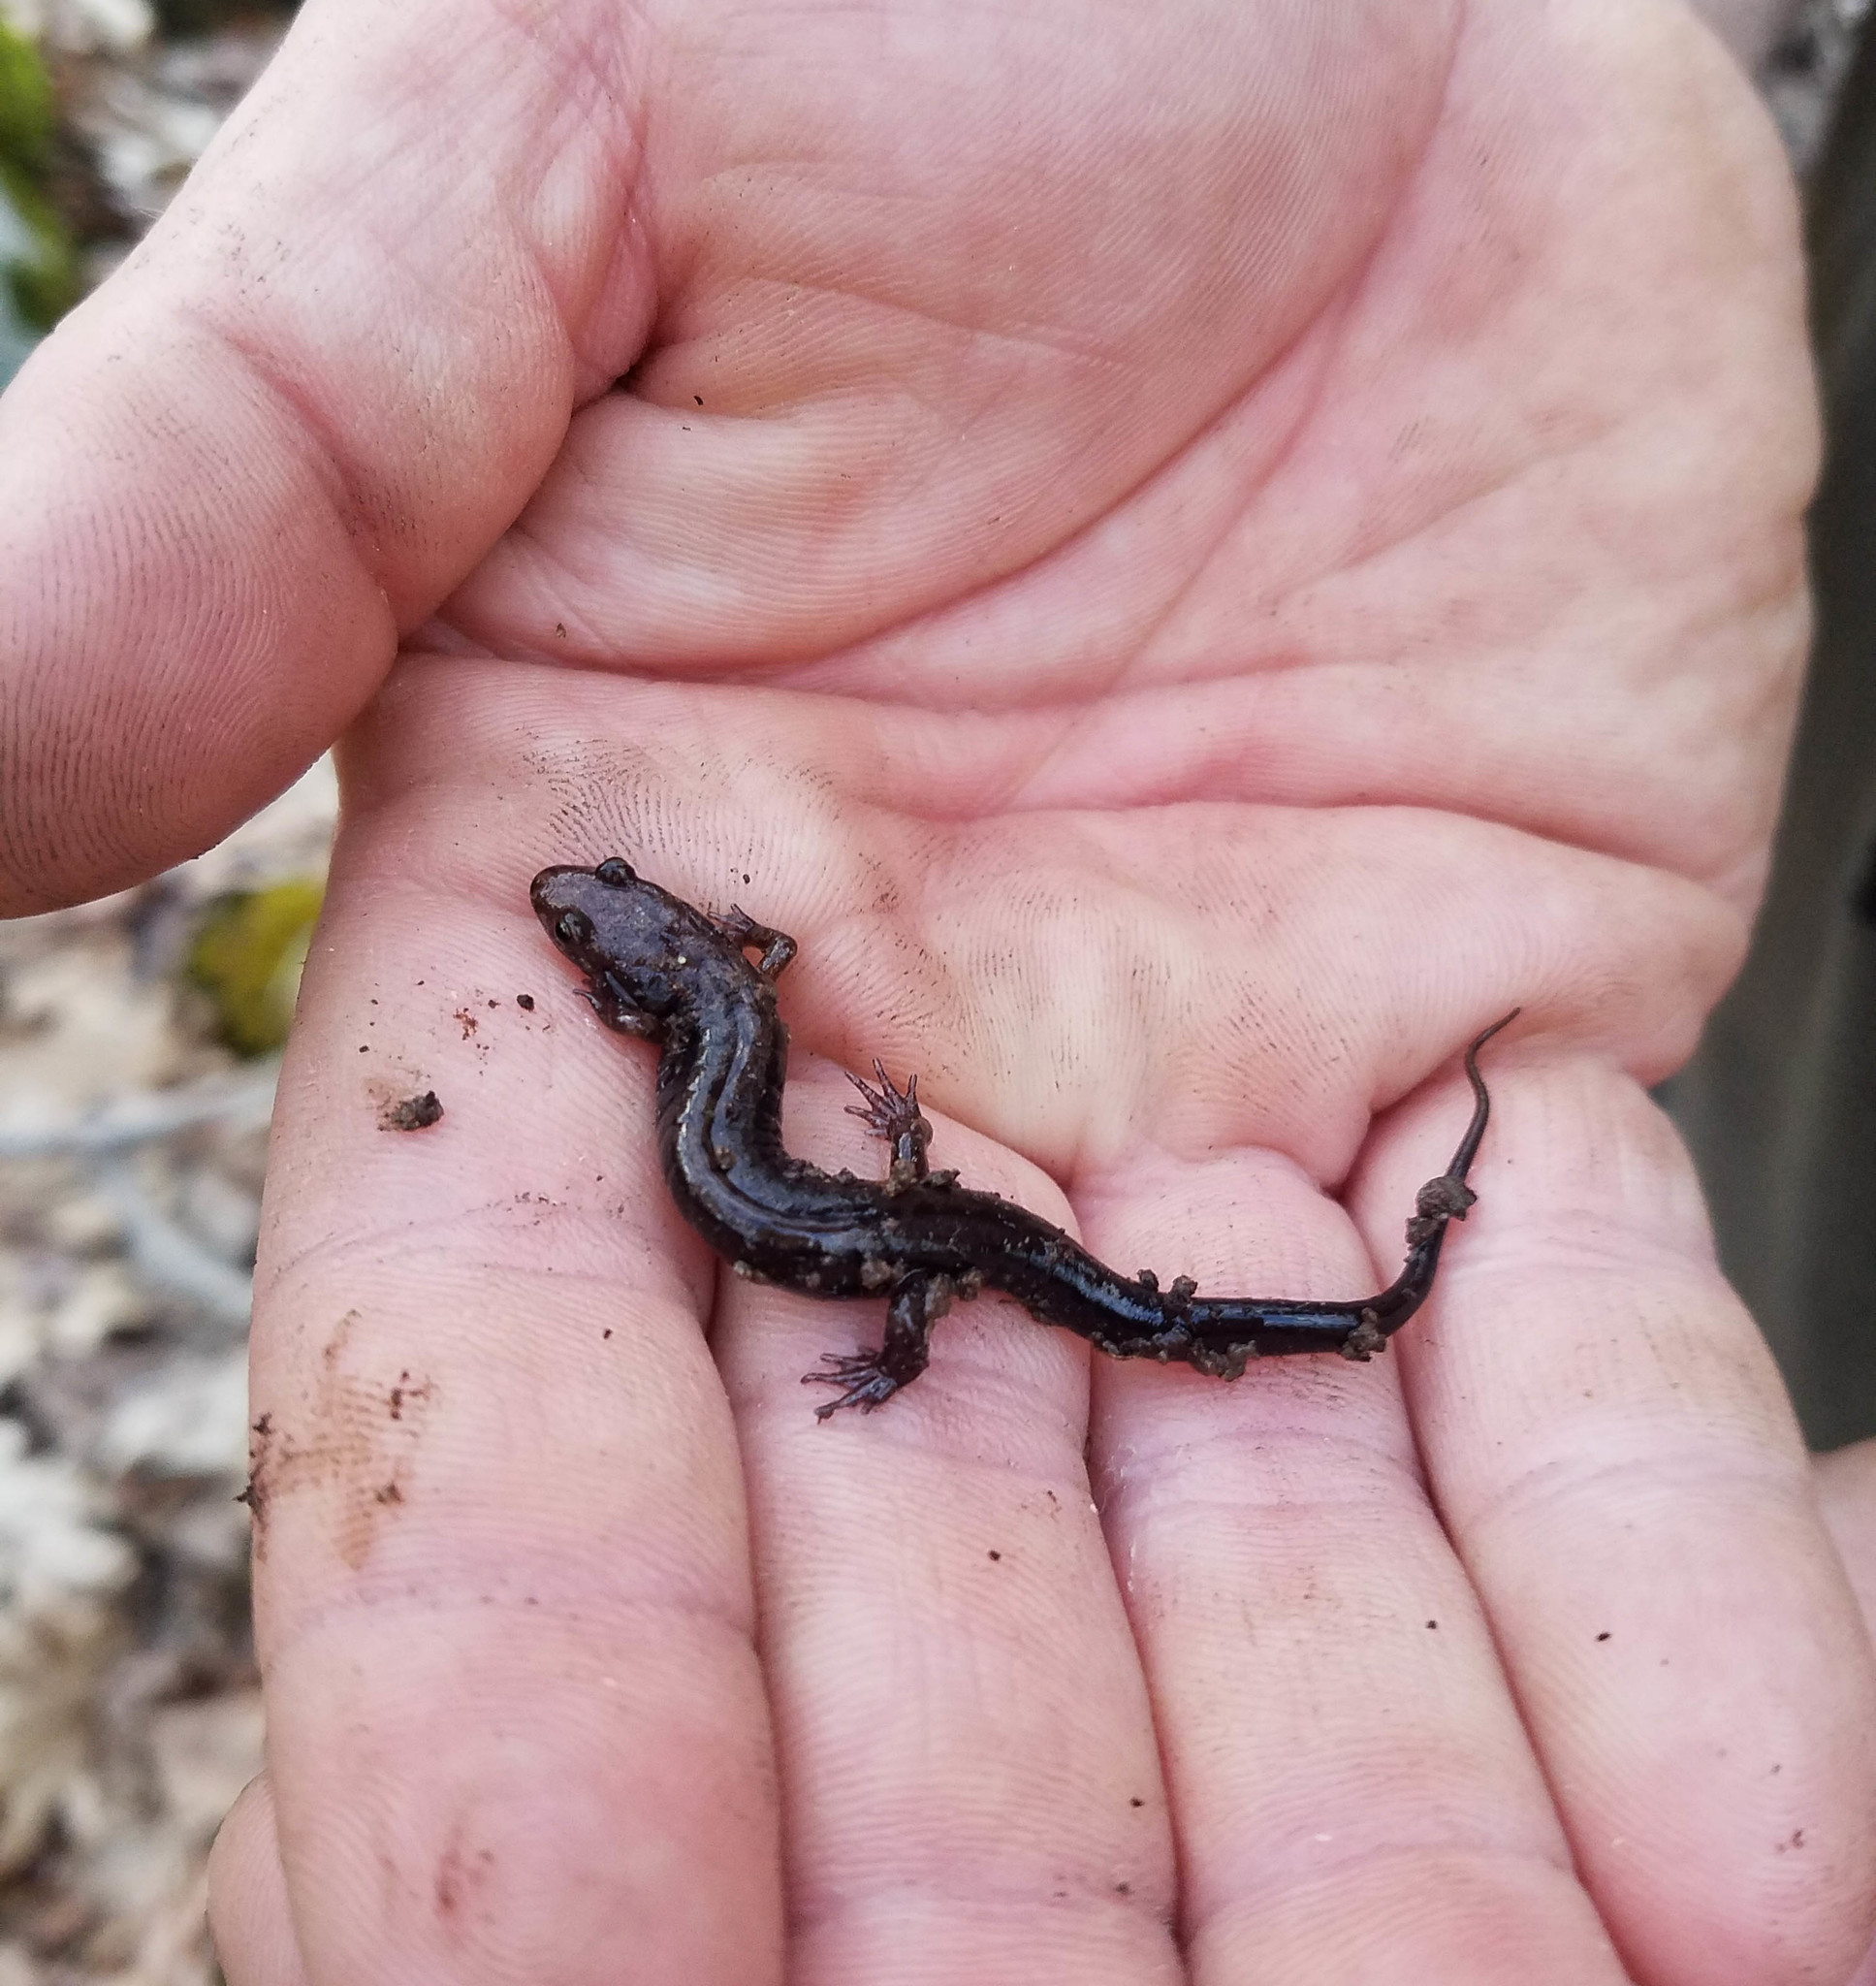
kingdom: Animalia
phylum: Chordata
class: Amphibia
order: Caudata
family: Plethodontidae
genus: Desmognathus
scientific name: Desmognathus ochrophaeus
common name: Allegheny mountain dusky salamander
